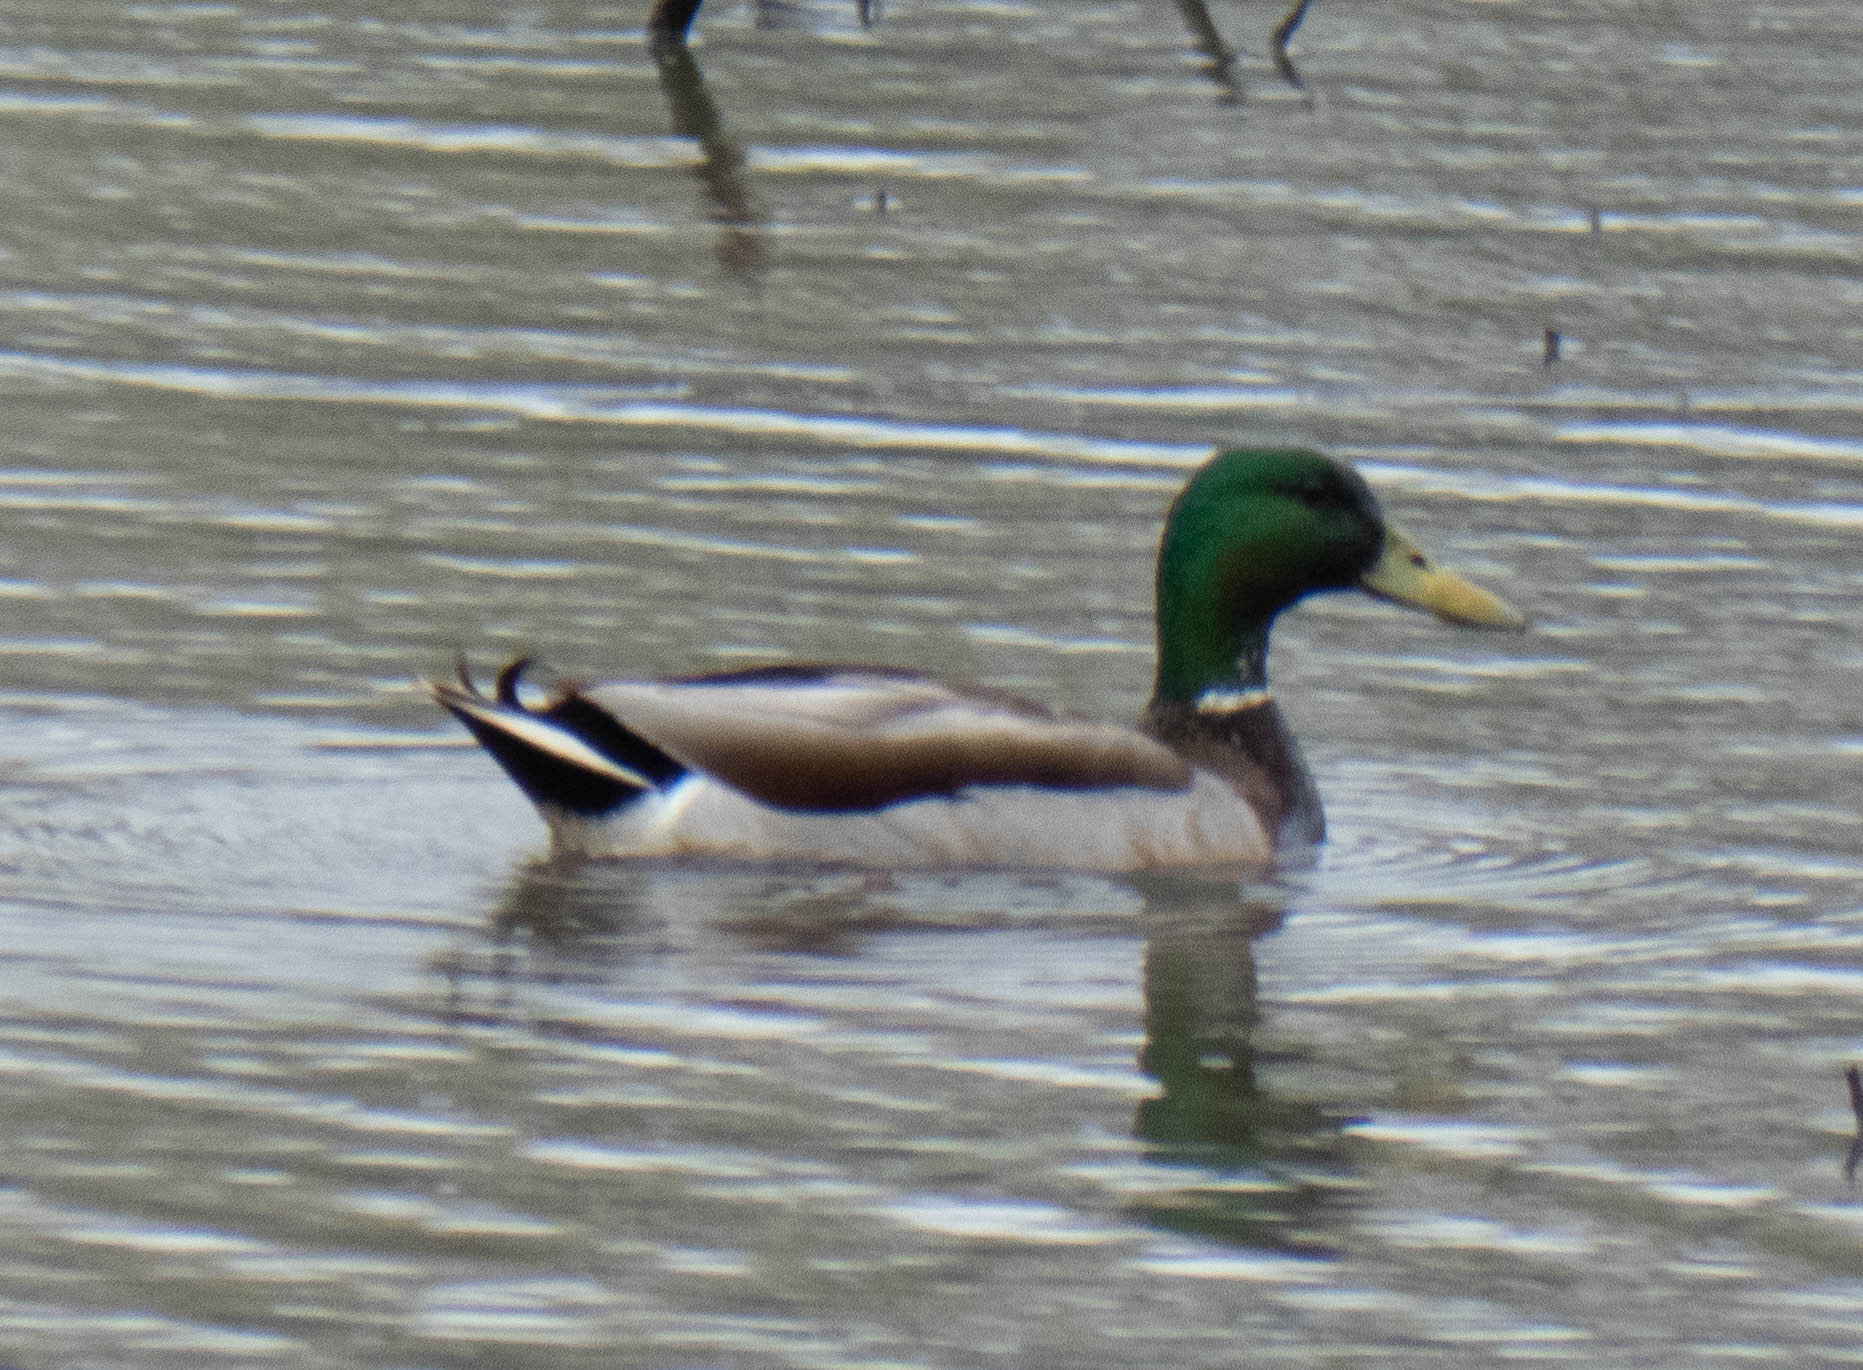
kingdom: Animalia
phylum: Chordata
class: Aves
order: Anseriformes
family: Anatidae
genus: Anas
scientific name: Anas platyrhynchos
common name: Mallard
